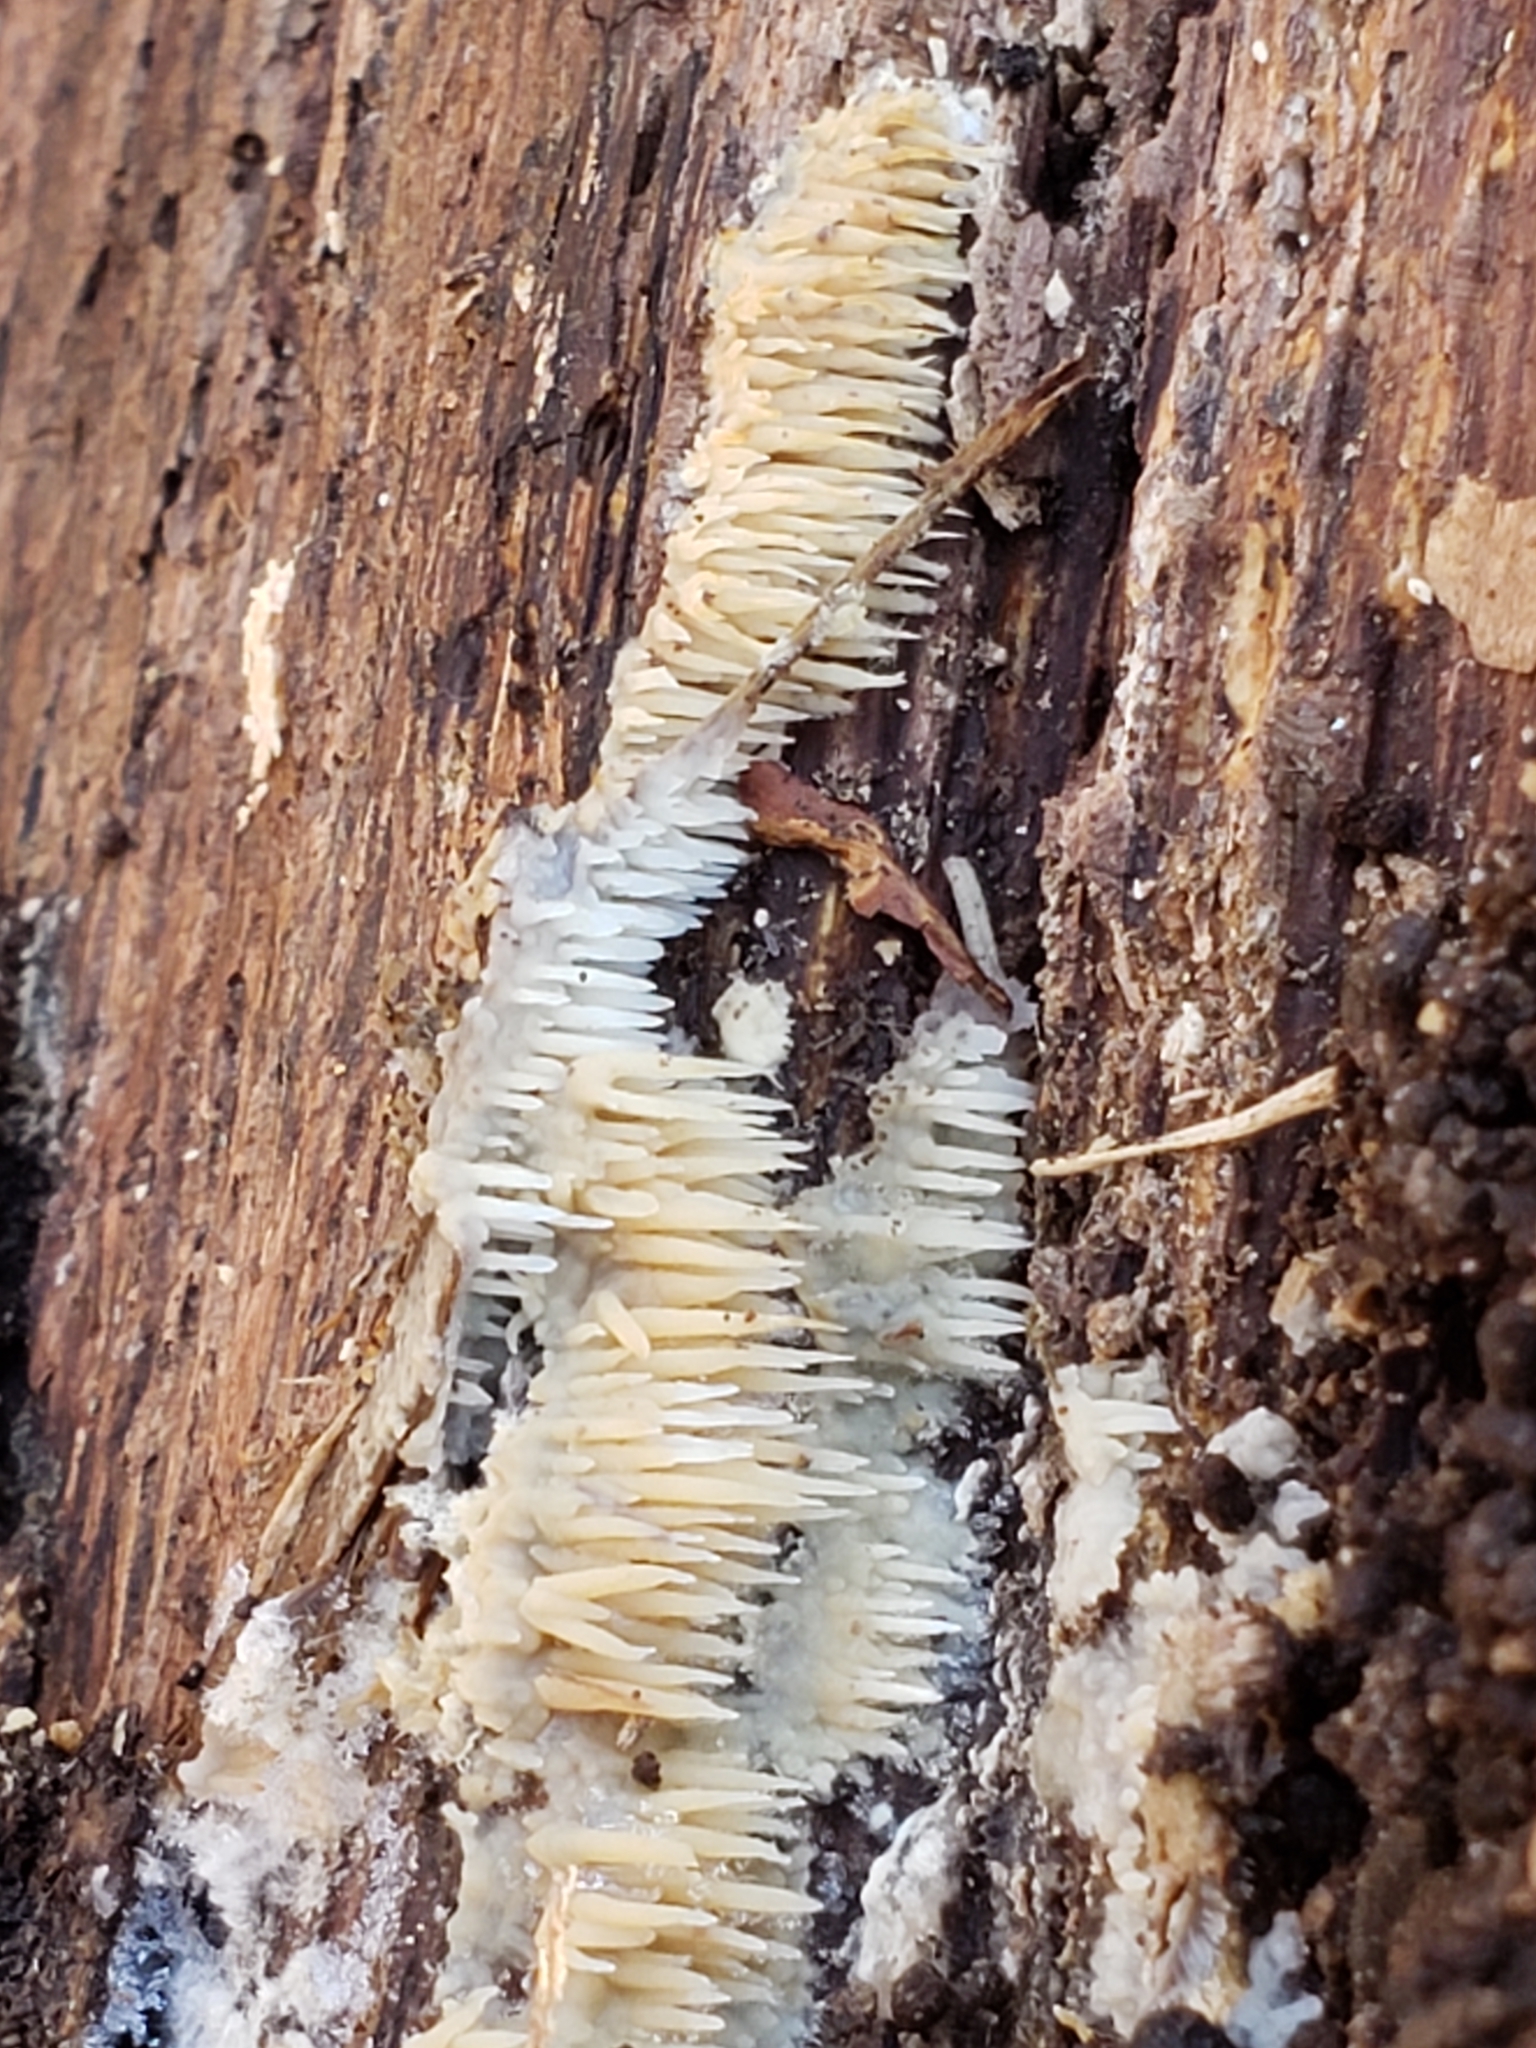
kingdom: Fungi
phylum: Basidiomycota
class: Agaricomycetes
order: Agaricales
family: Radulomycetaceae
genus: Radulomyces
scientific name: Radulomyces copelandii
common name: Asian beauty
